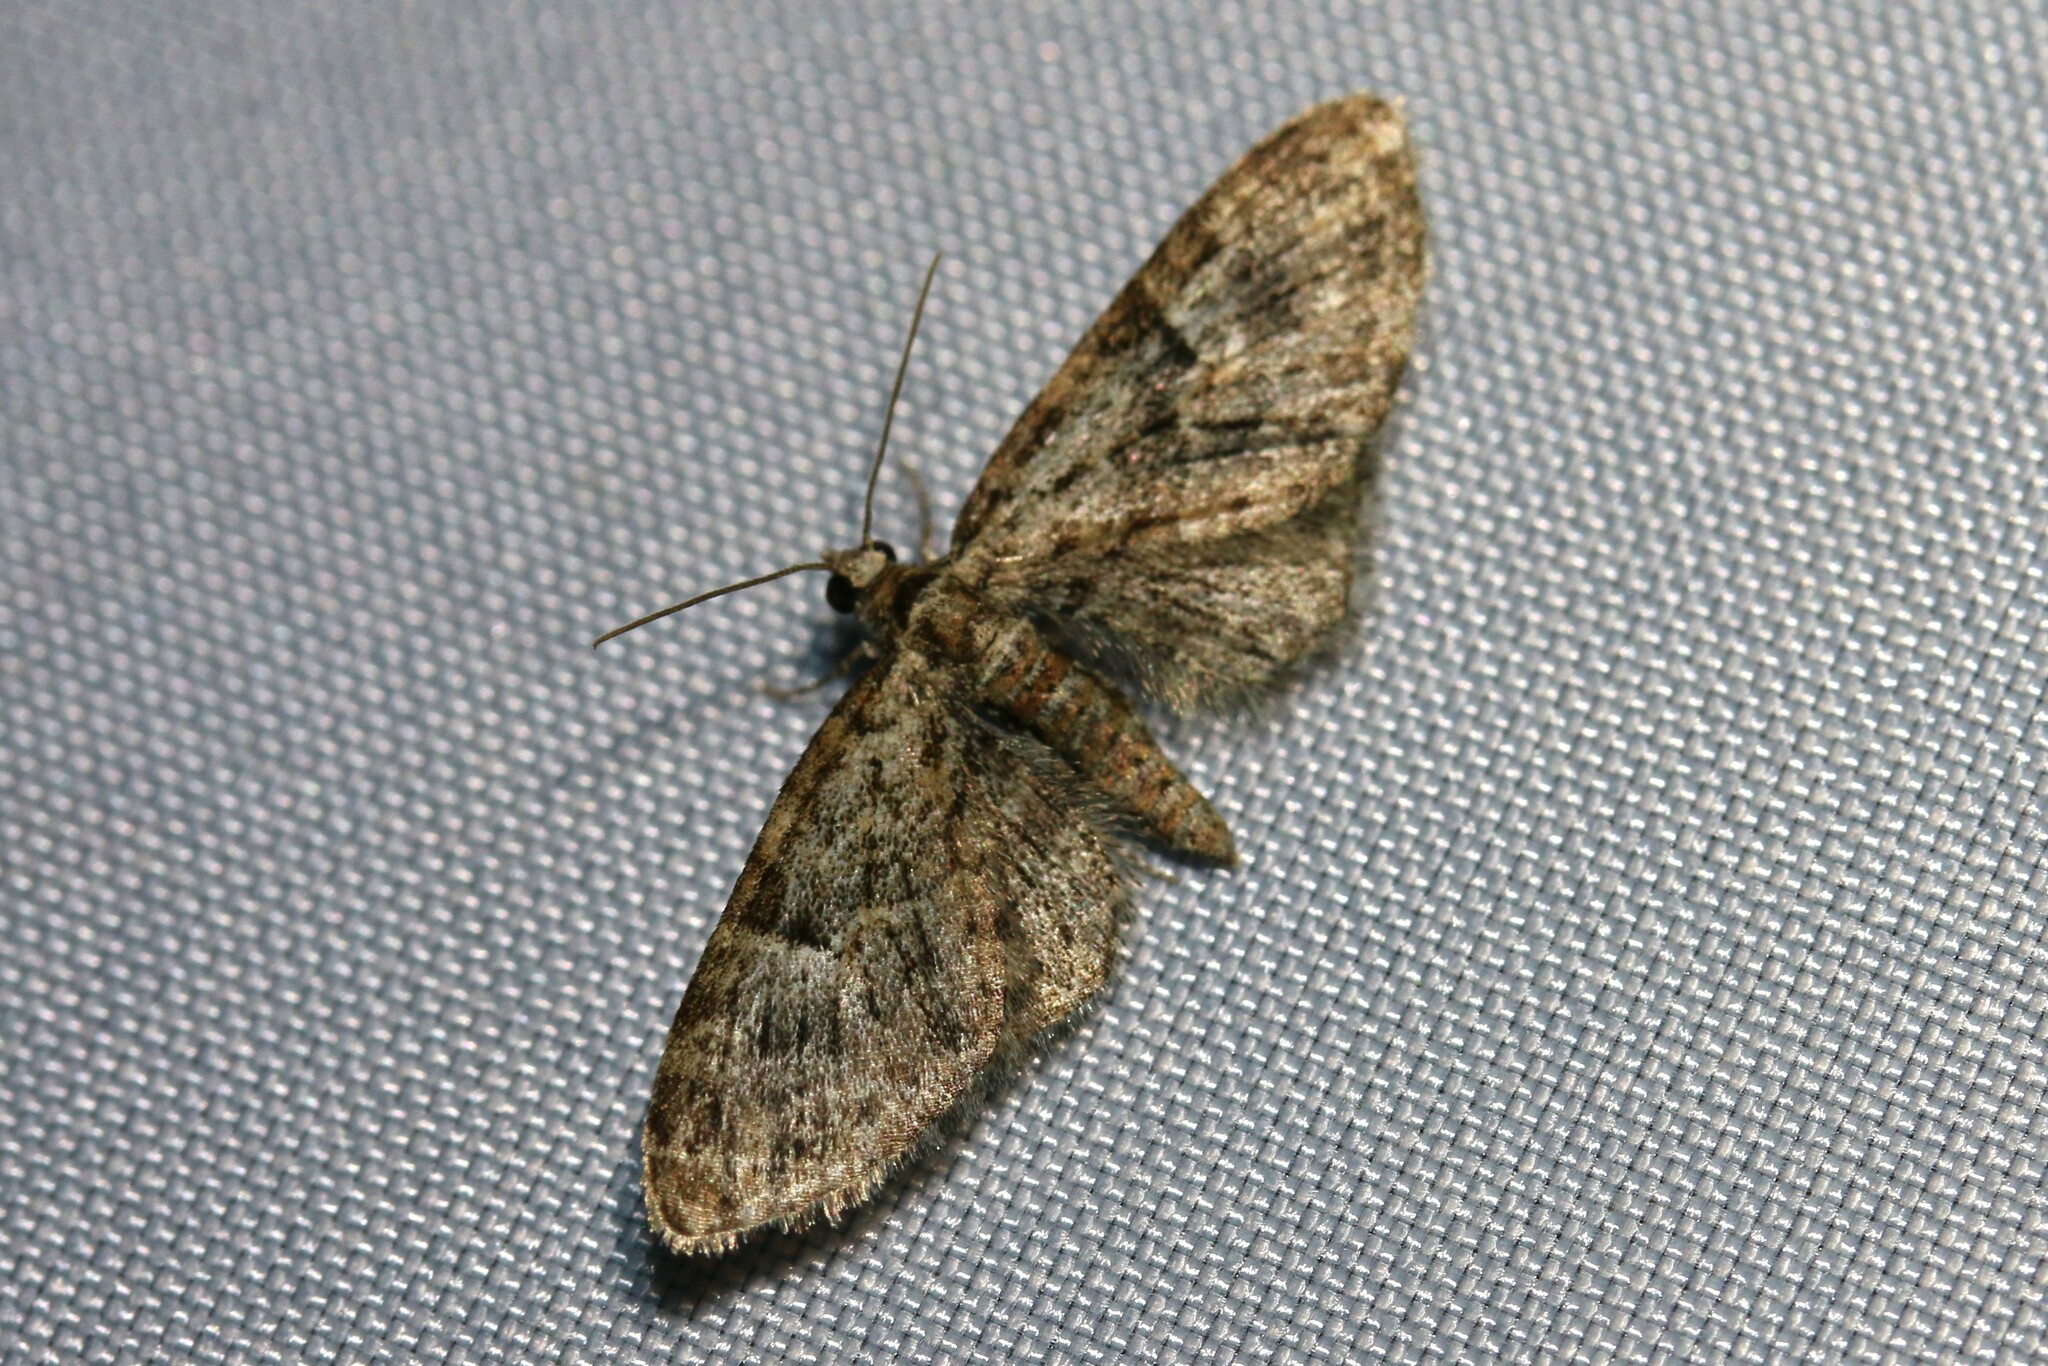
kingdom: Animalia
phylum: Arthropoda
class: Insecta
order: Lepidoptera
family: Geometridae
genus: Eupithecia
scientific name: Eupithecia dodoneata
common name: Oak-tree pug
